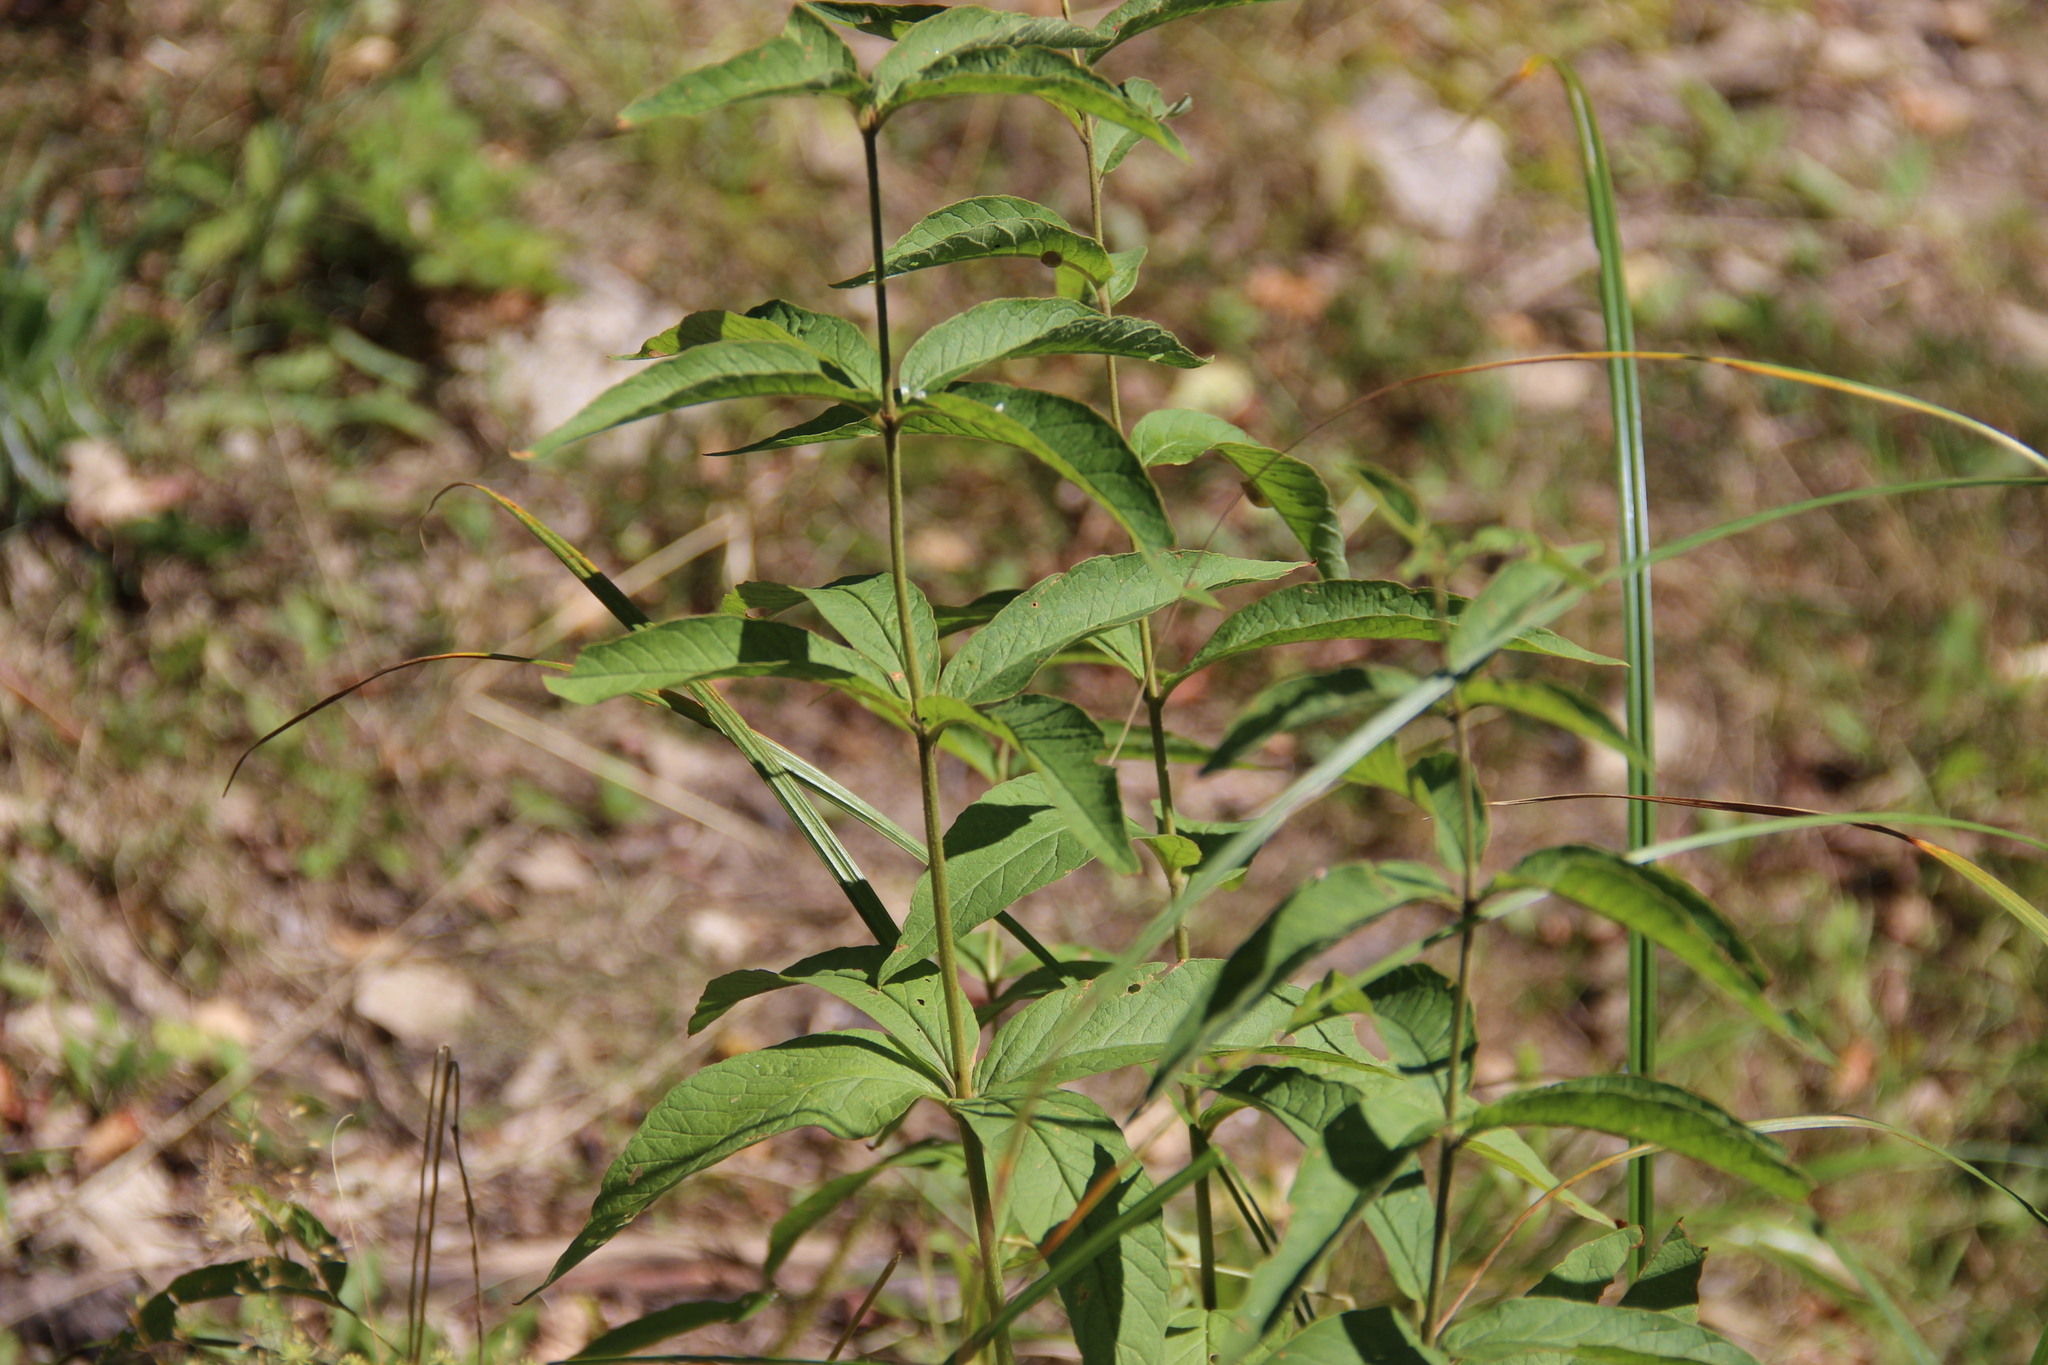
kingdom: Plantae
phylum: Tracheophyta
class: Magnoliopsida
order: Ericales
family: Primulaceae
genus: Lysimachia
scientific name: Lysimachia vulgaris
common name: Yellow loosestrife
